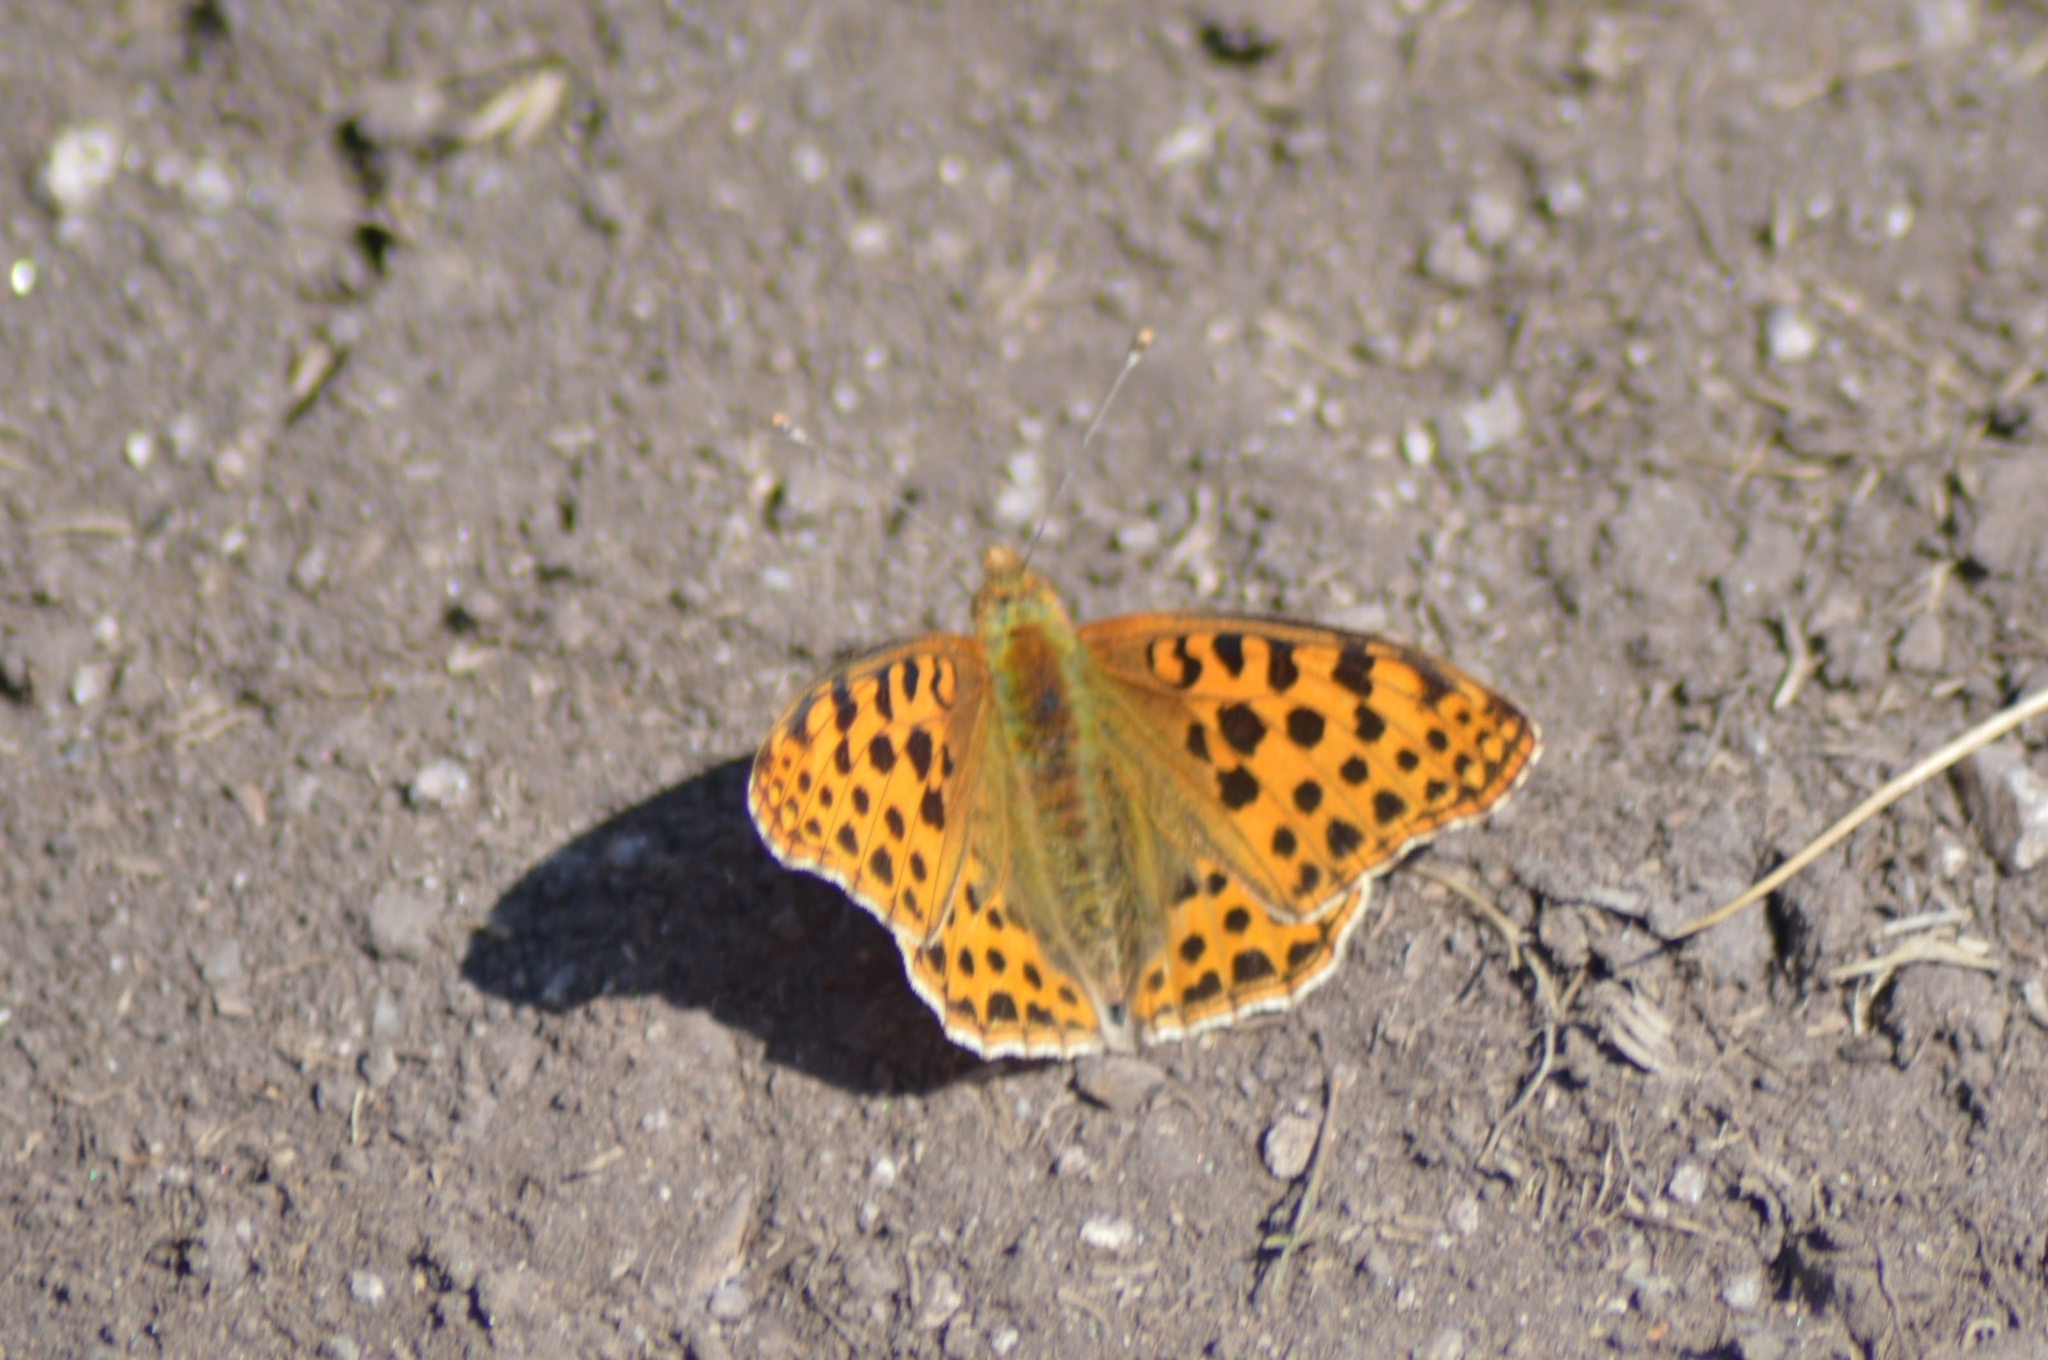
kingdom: Animalia
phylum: Arthropoda
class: Insecta
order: Lepidoptera
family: Nymphalidae
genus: Issoria
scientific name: Issoria lathonia
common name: Queen of spain fritillary
